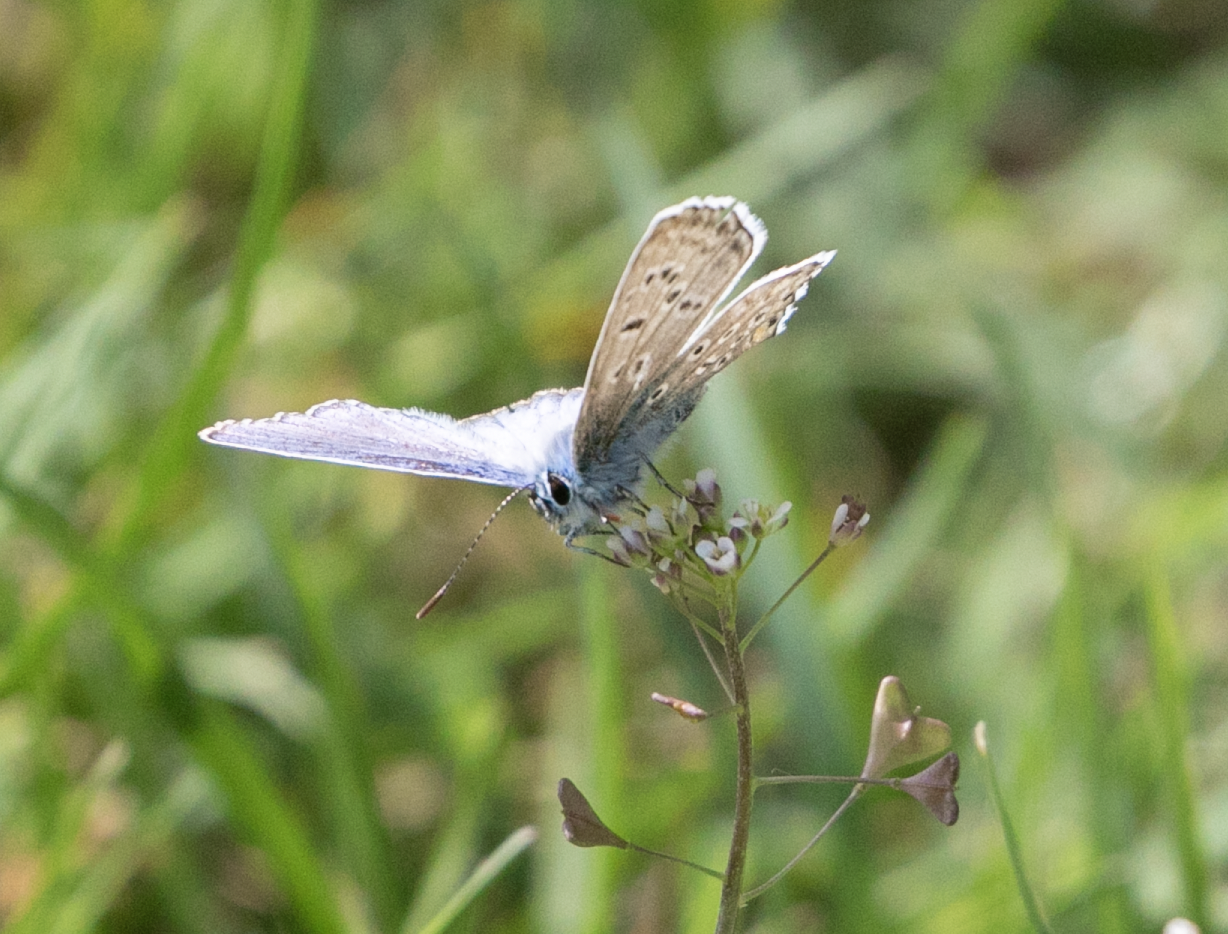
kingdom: Animalia
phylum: Arthropoda
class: Insecta
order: Lepidoptera
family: Lycaenidae
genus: Polyommatus
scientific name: Polyommatus icarus
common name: Common blue
